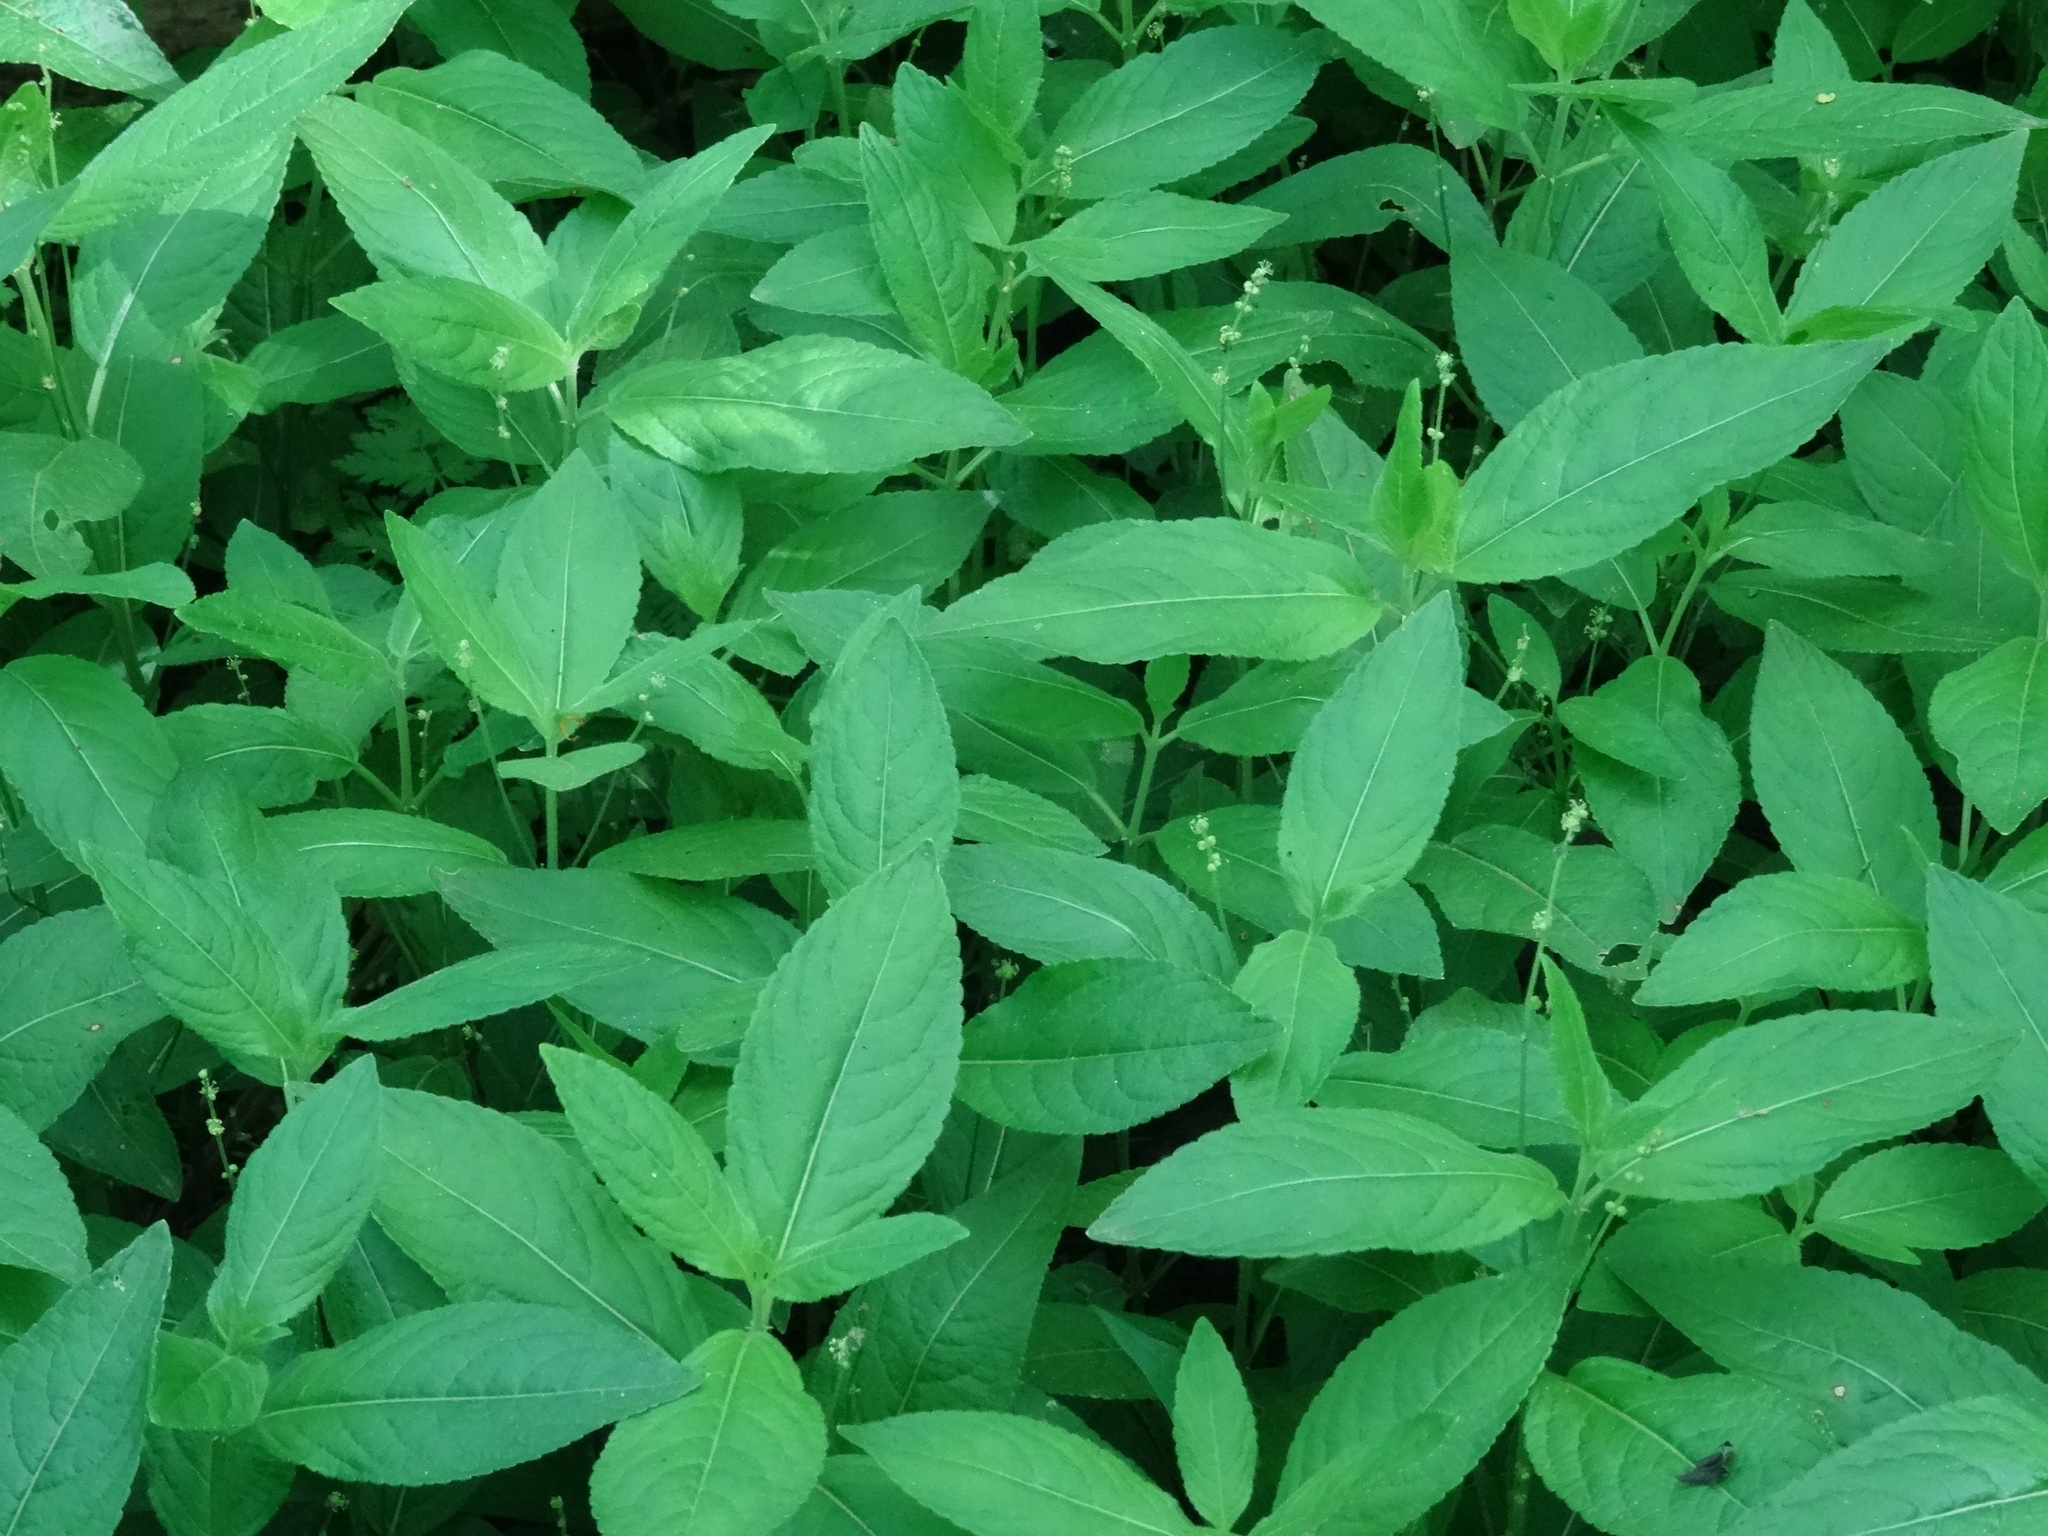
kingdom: Plantae
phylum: Tracheophyta
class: Magnoliopsida
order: Malpighiales
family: Euphorbiaceae
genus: Mercurialis
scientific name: Mercurialis perennis
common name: Dog mercury
